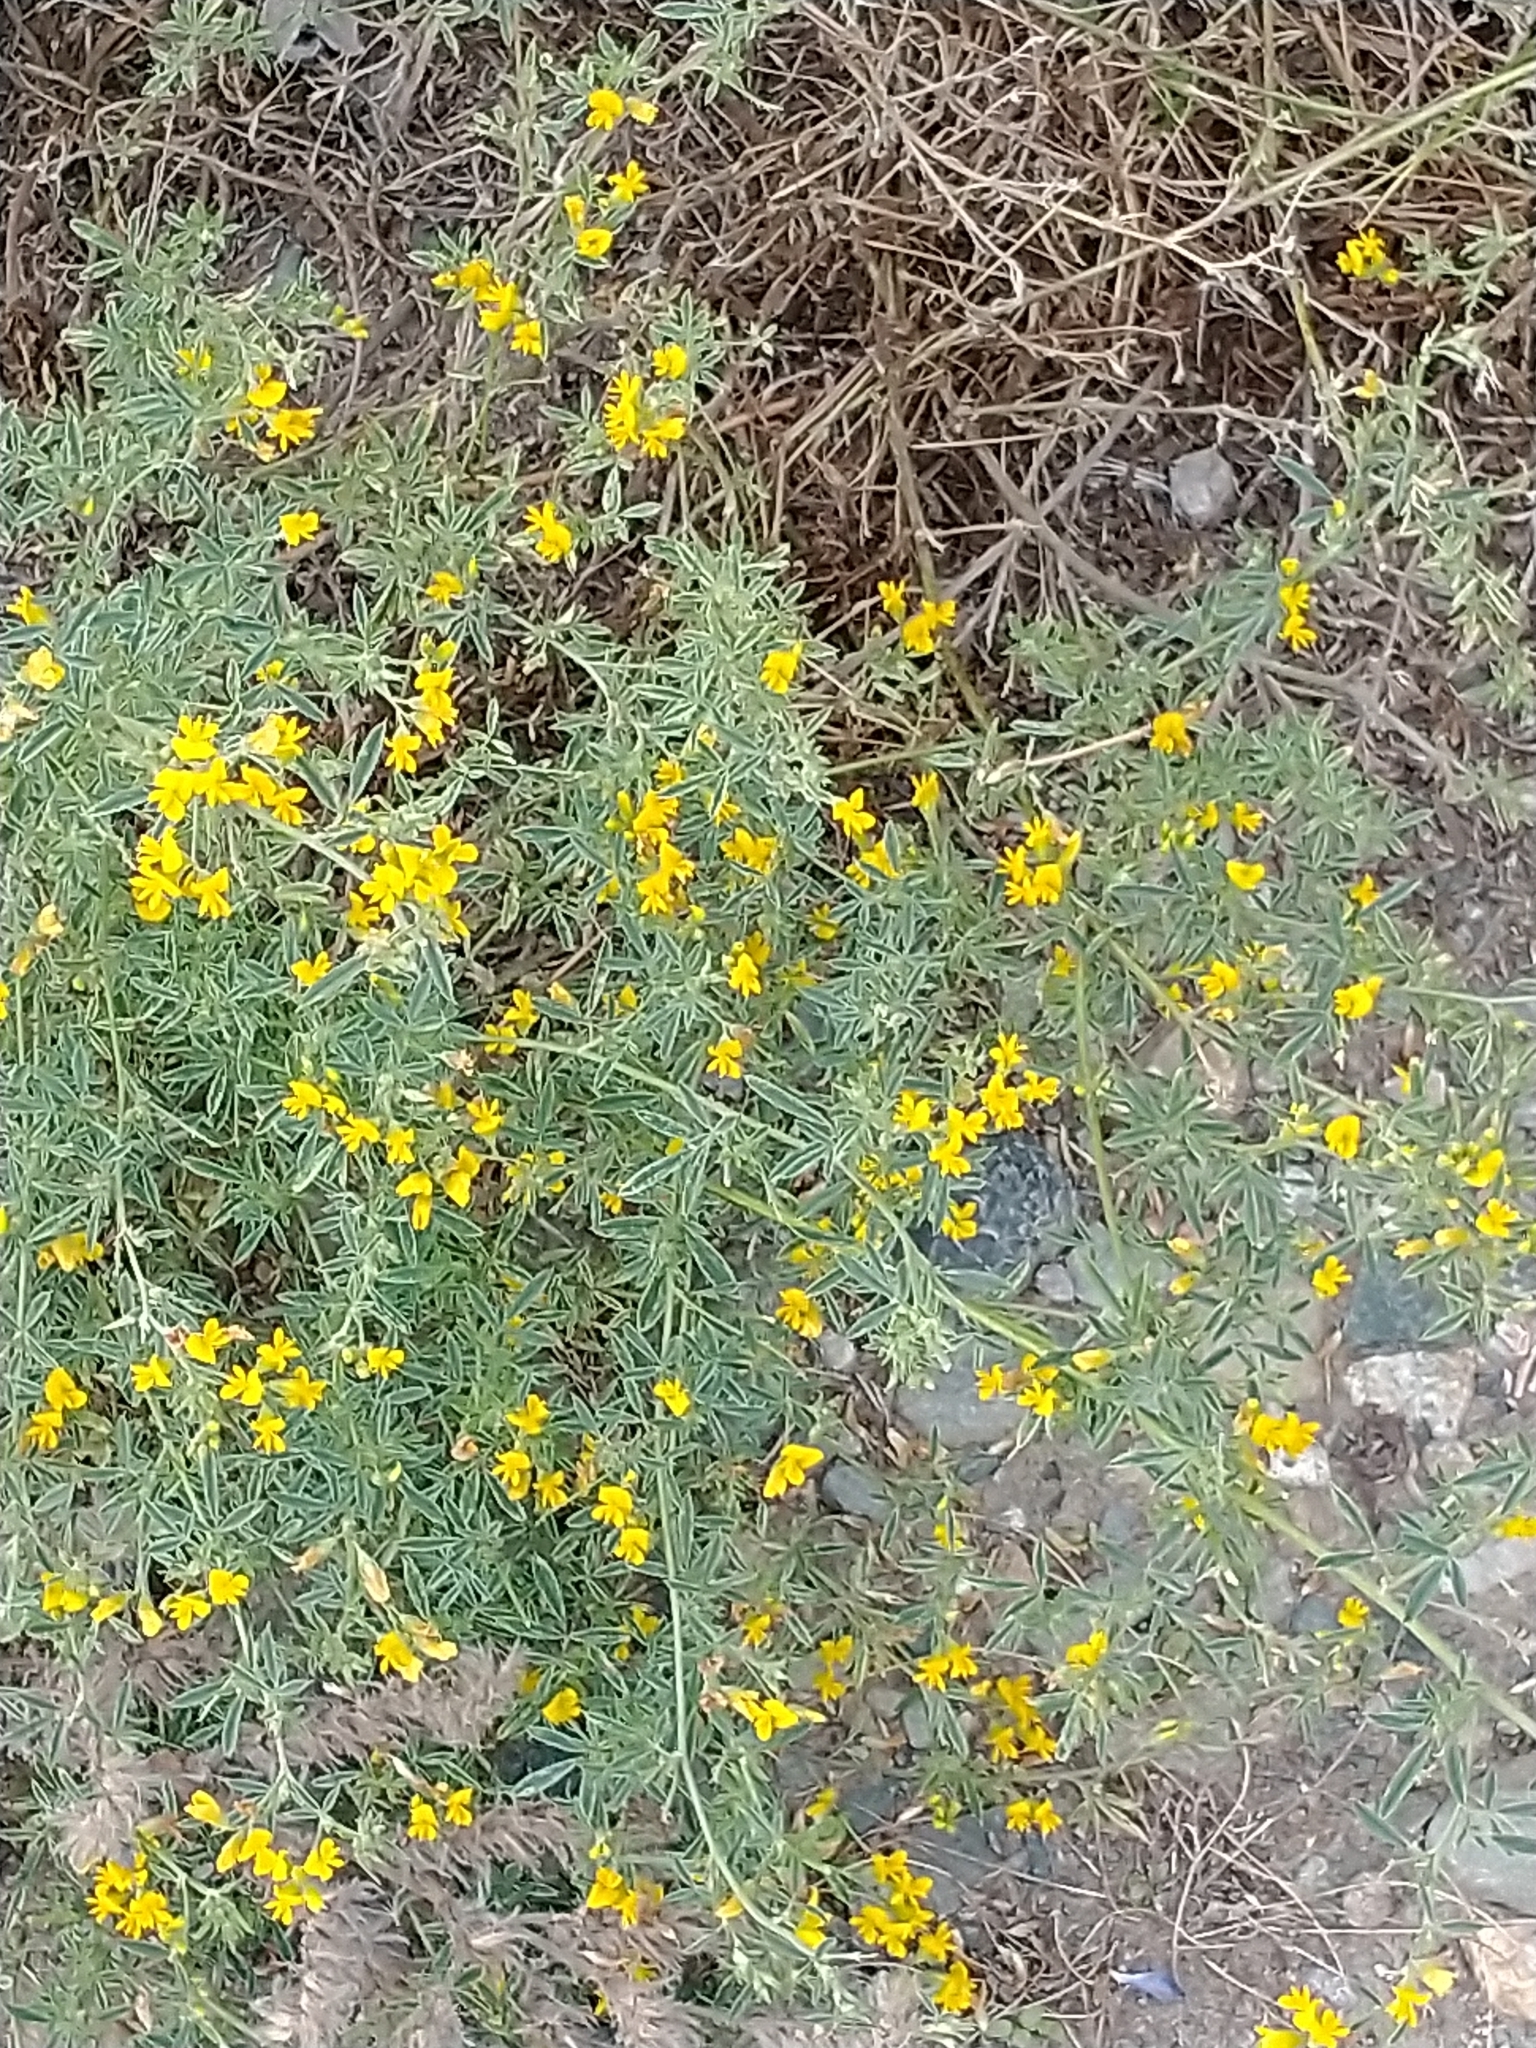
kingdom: Plantae
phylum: Tracheophyta
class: Magnoliopsida
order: Fabales
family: Fabaceae
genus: Medicago
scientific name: Medicago falcata
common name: Sickle medick
